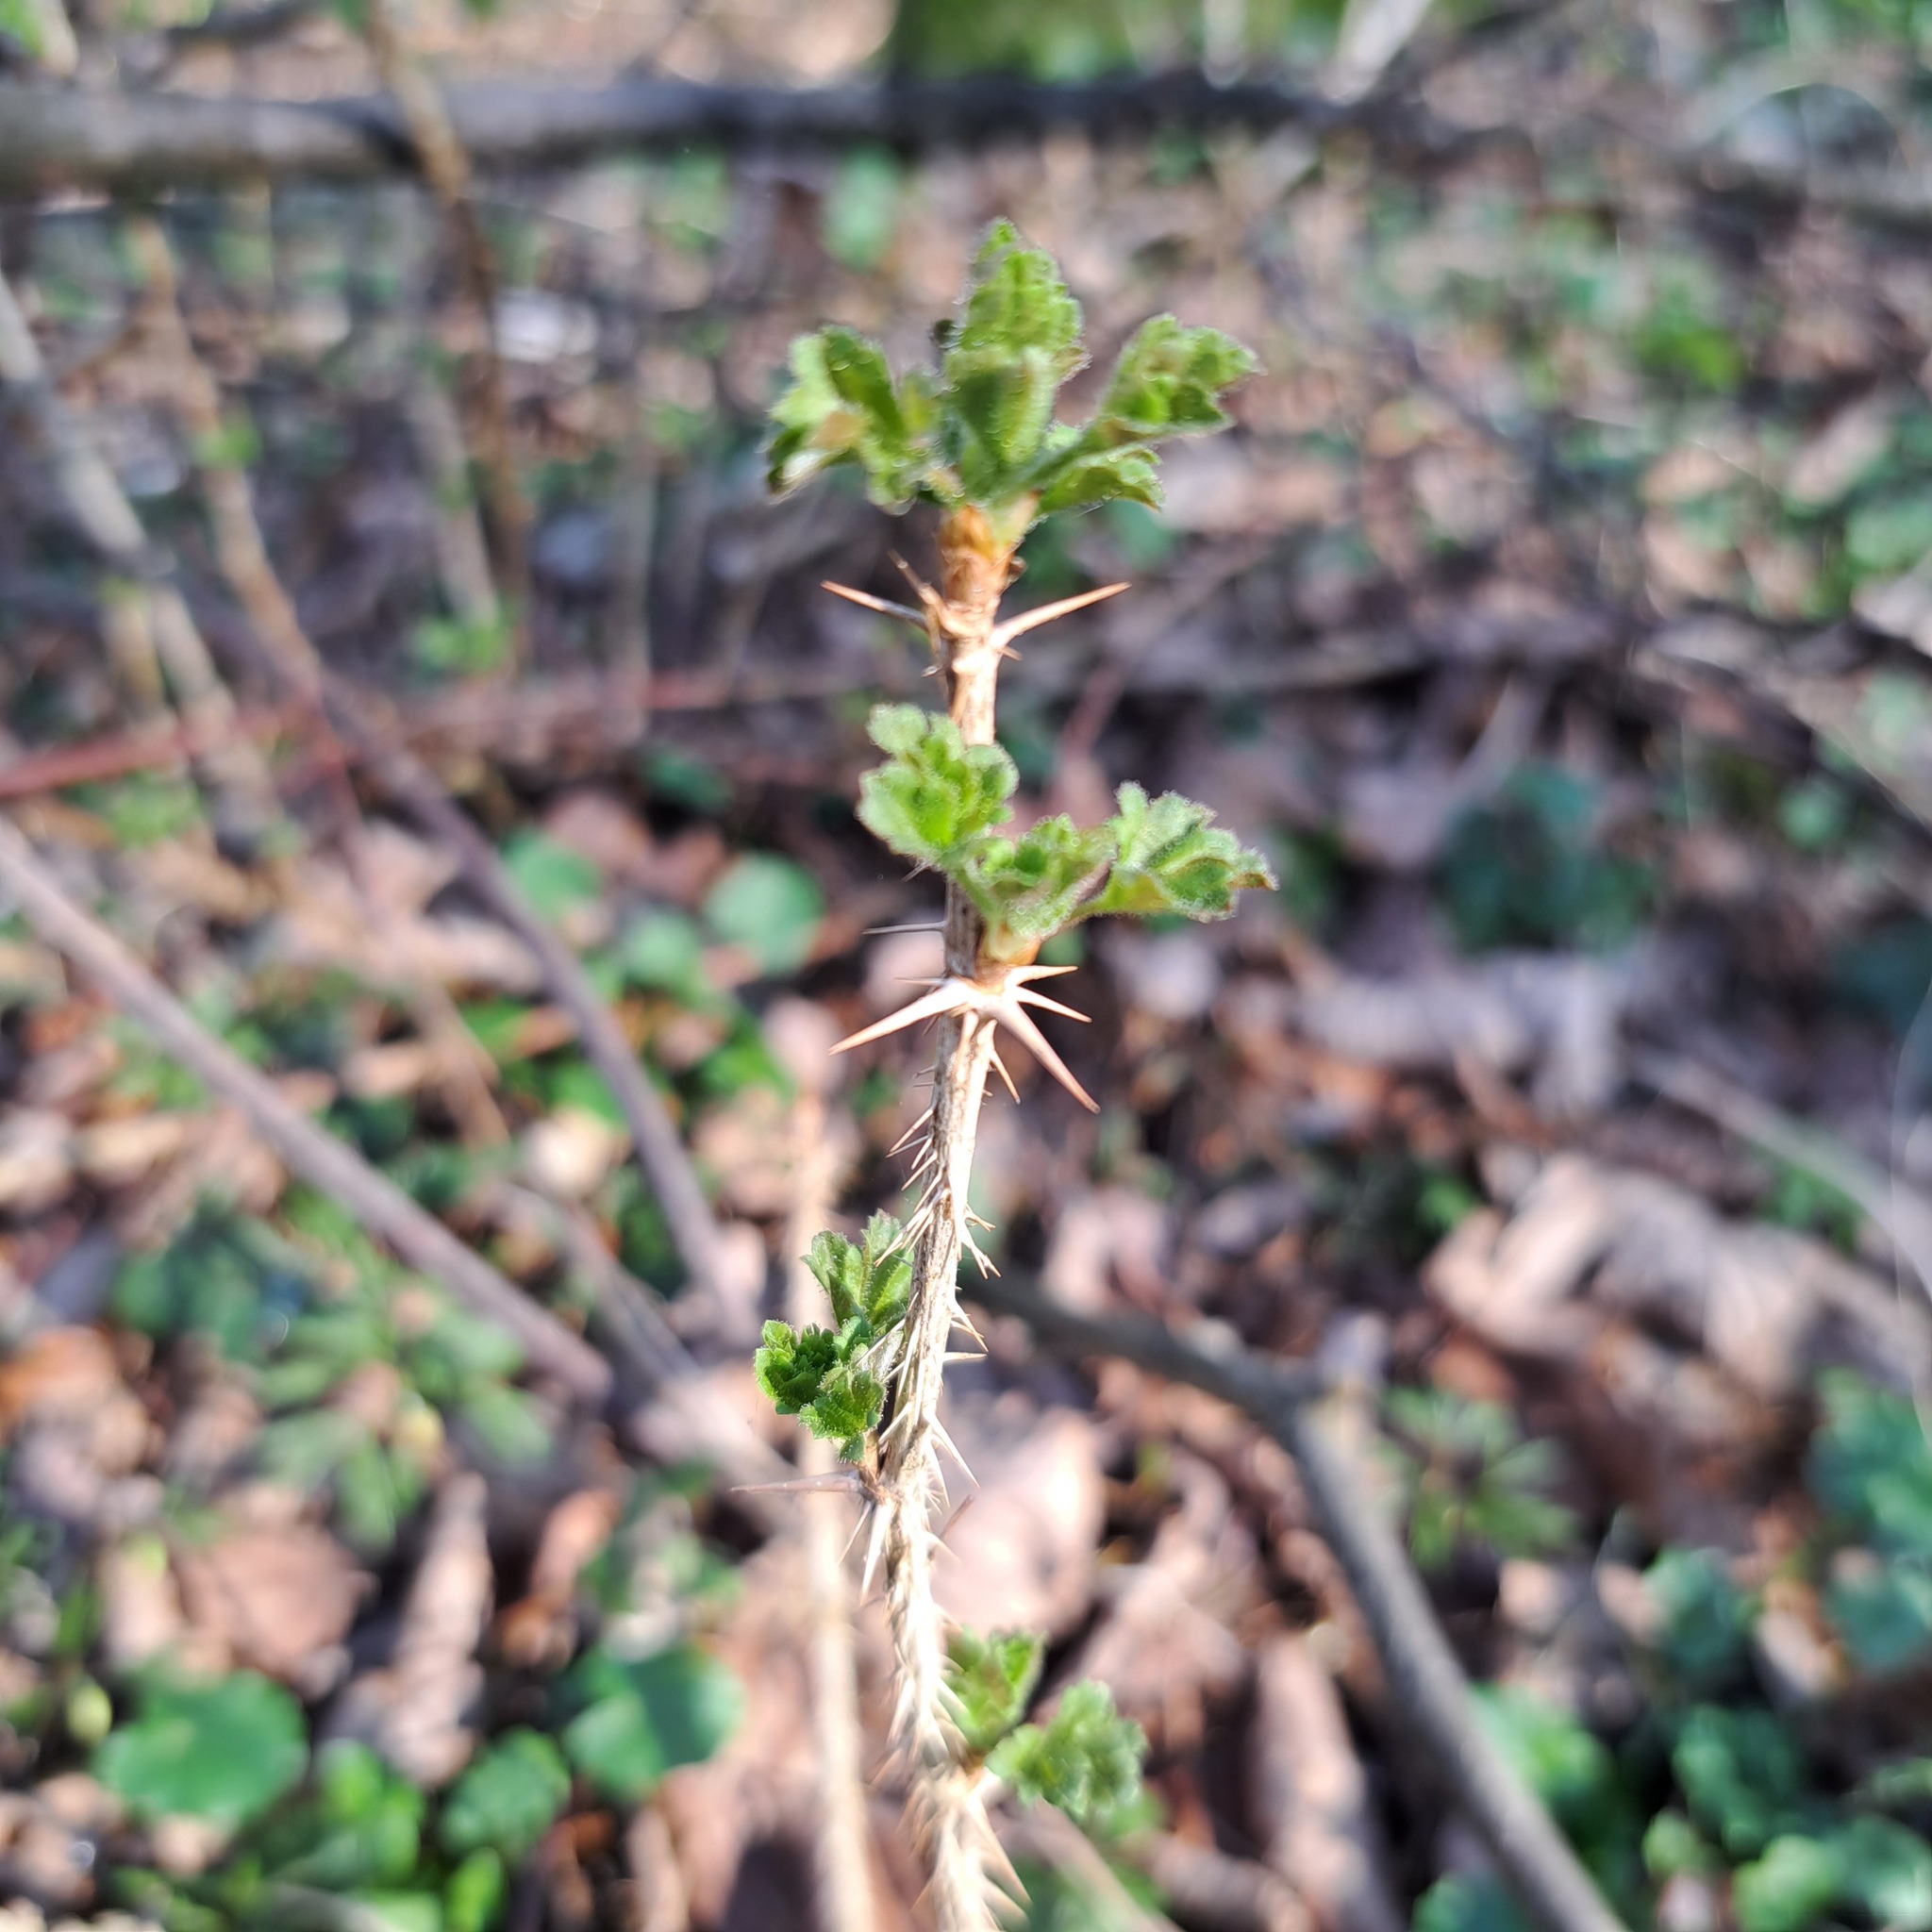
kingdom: Plantae
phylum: Tracheophyta
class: Magnoliopsida
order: Saxifragales
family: Grossulariaceae
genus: Ribes
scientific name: Ribes uva-crispa
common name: Gooseberry
